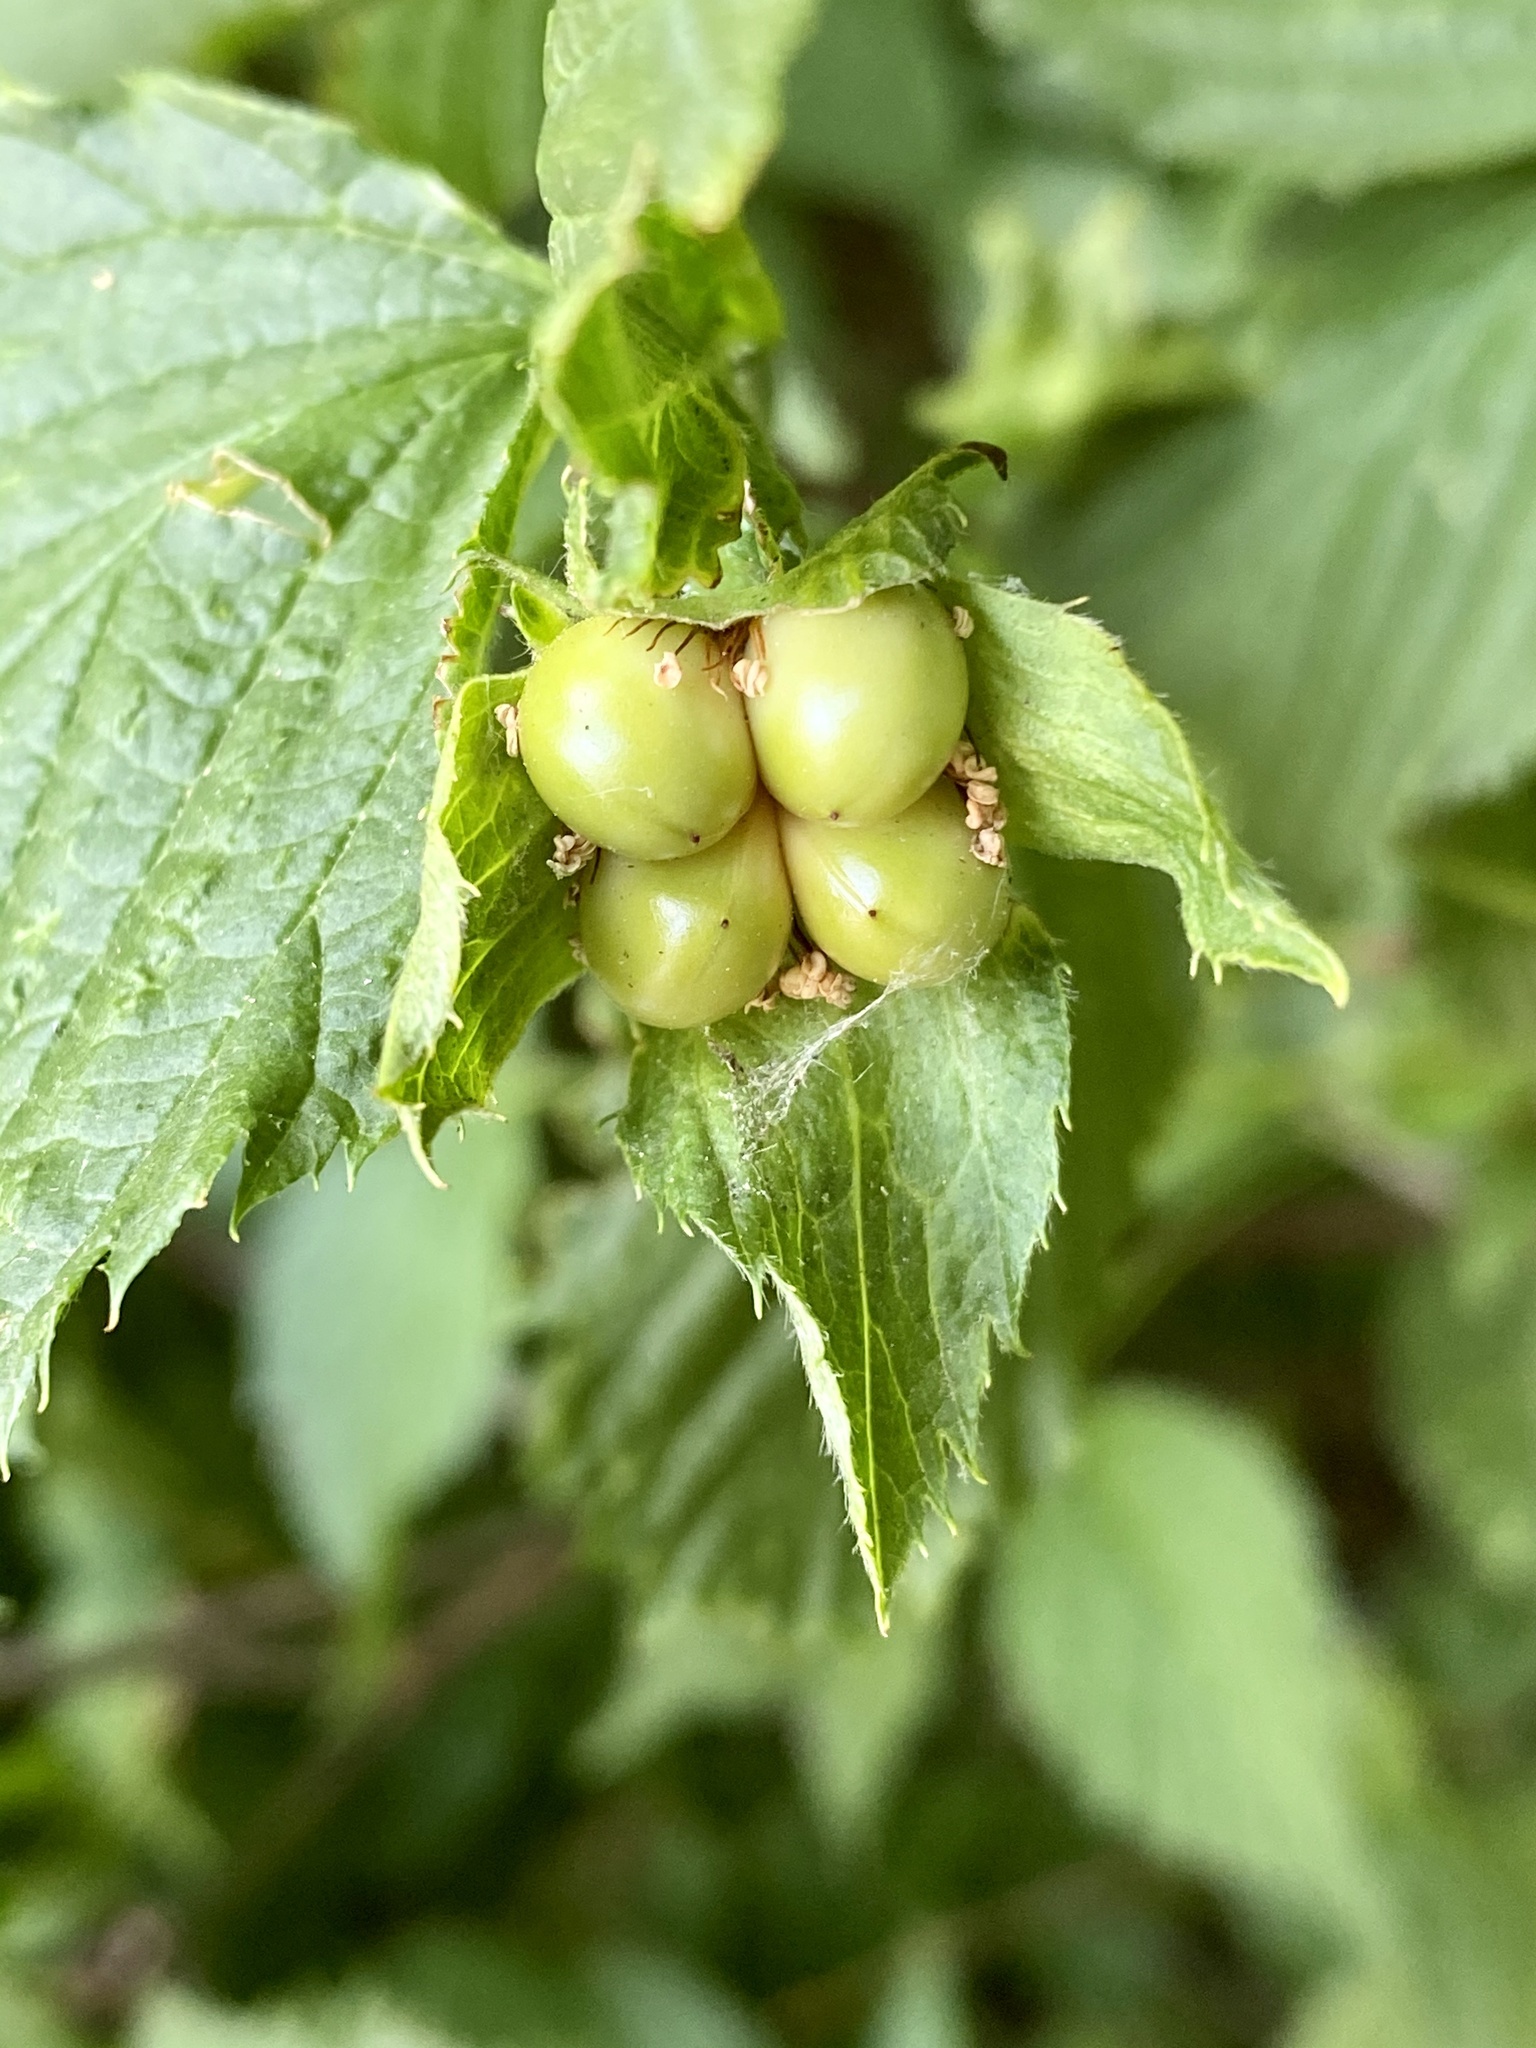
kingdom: Plantae
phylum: Tracheophyta
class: Magnoliopsida
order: Rosales
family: Rosaceae
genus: Rhodotypos
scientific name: Rhodotypos scandens
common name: Jetbead
